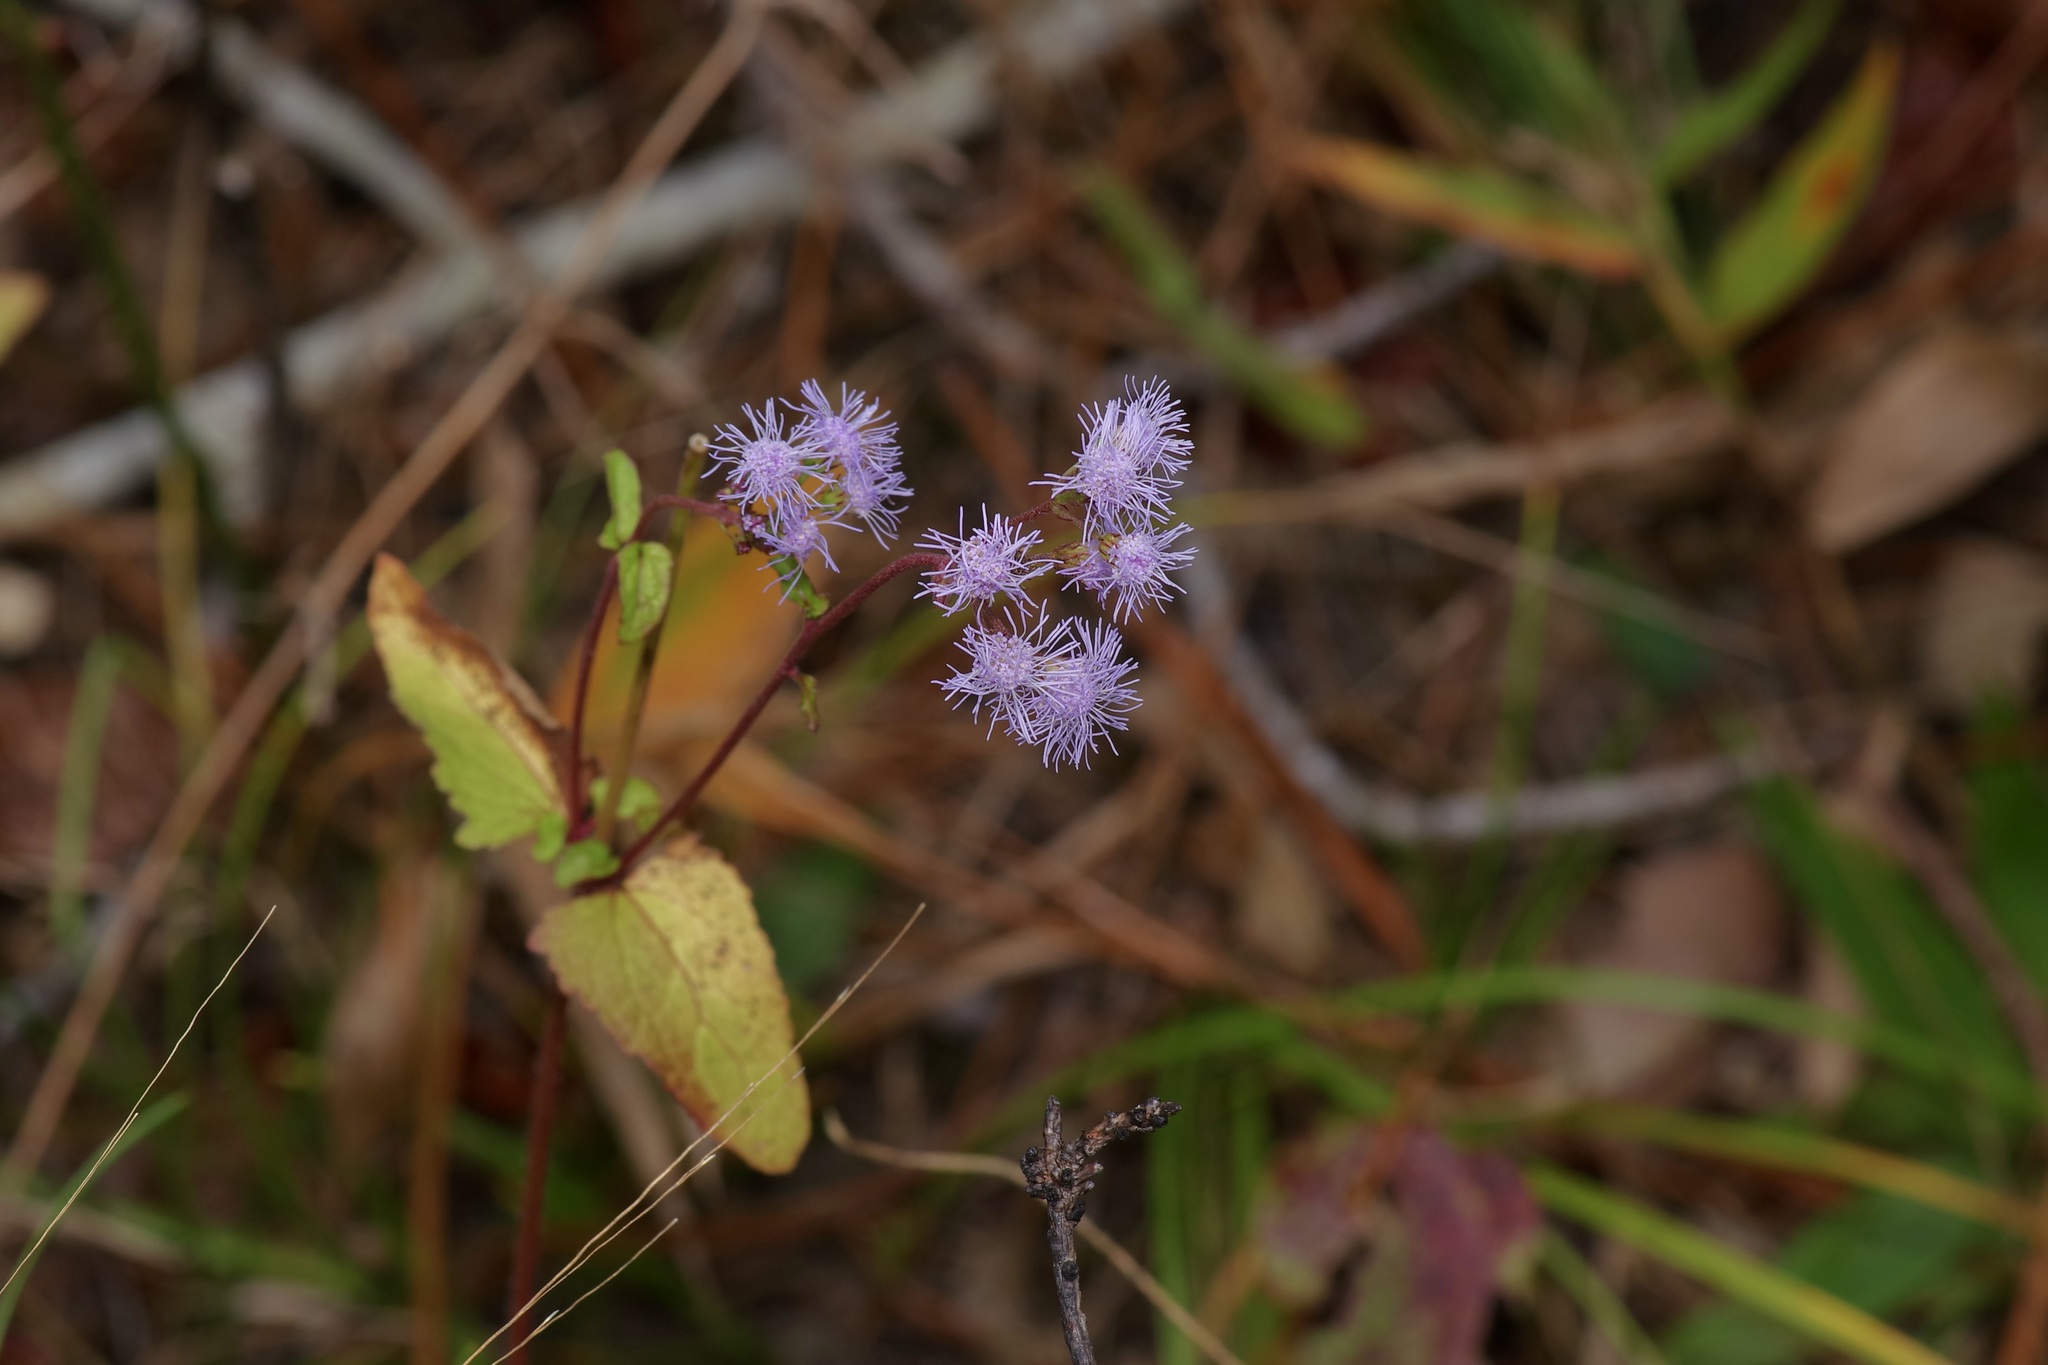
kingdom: Plantae
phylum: Tracheophyta
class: Magnoliopsida
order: Asterales
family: Asteraceae
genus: Conoclinium
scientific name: Conoclinium coelestinum
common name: Blue mistflower
